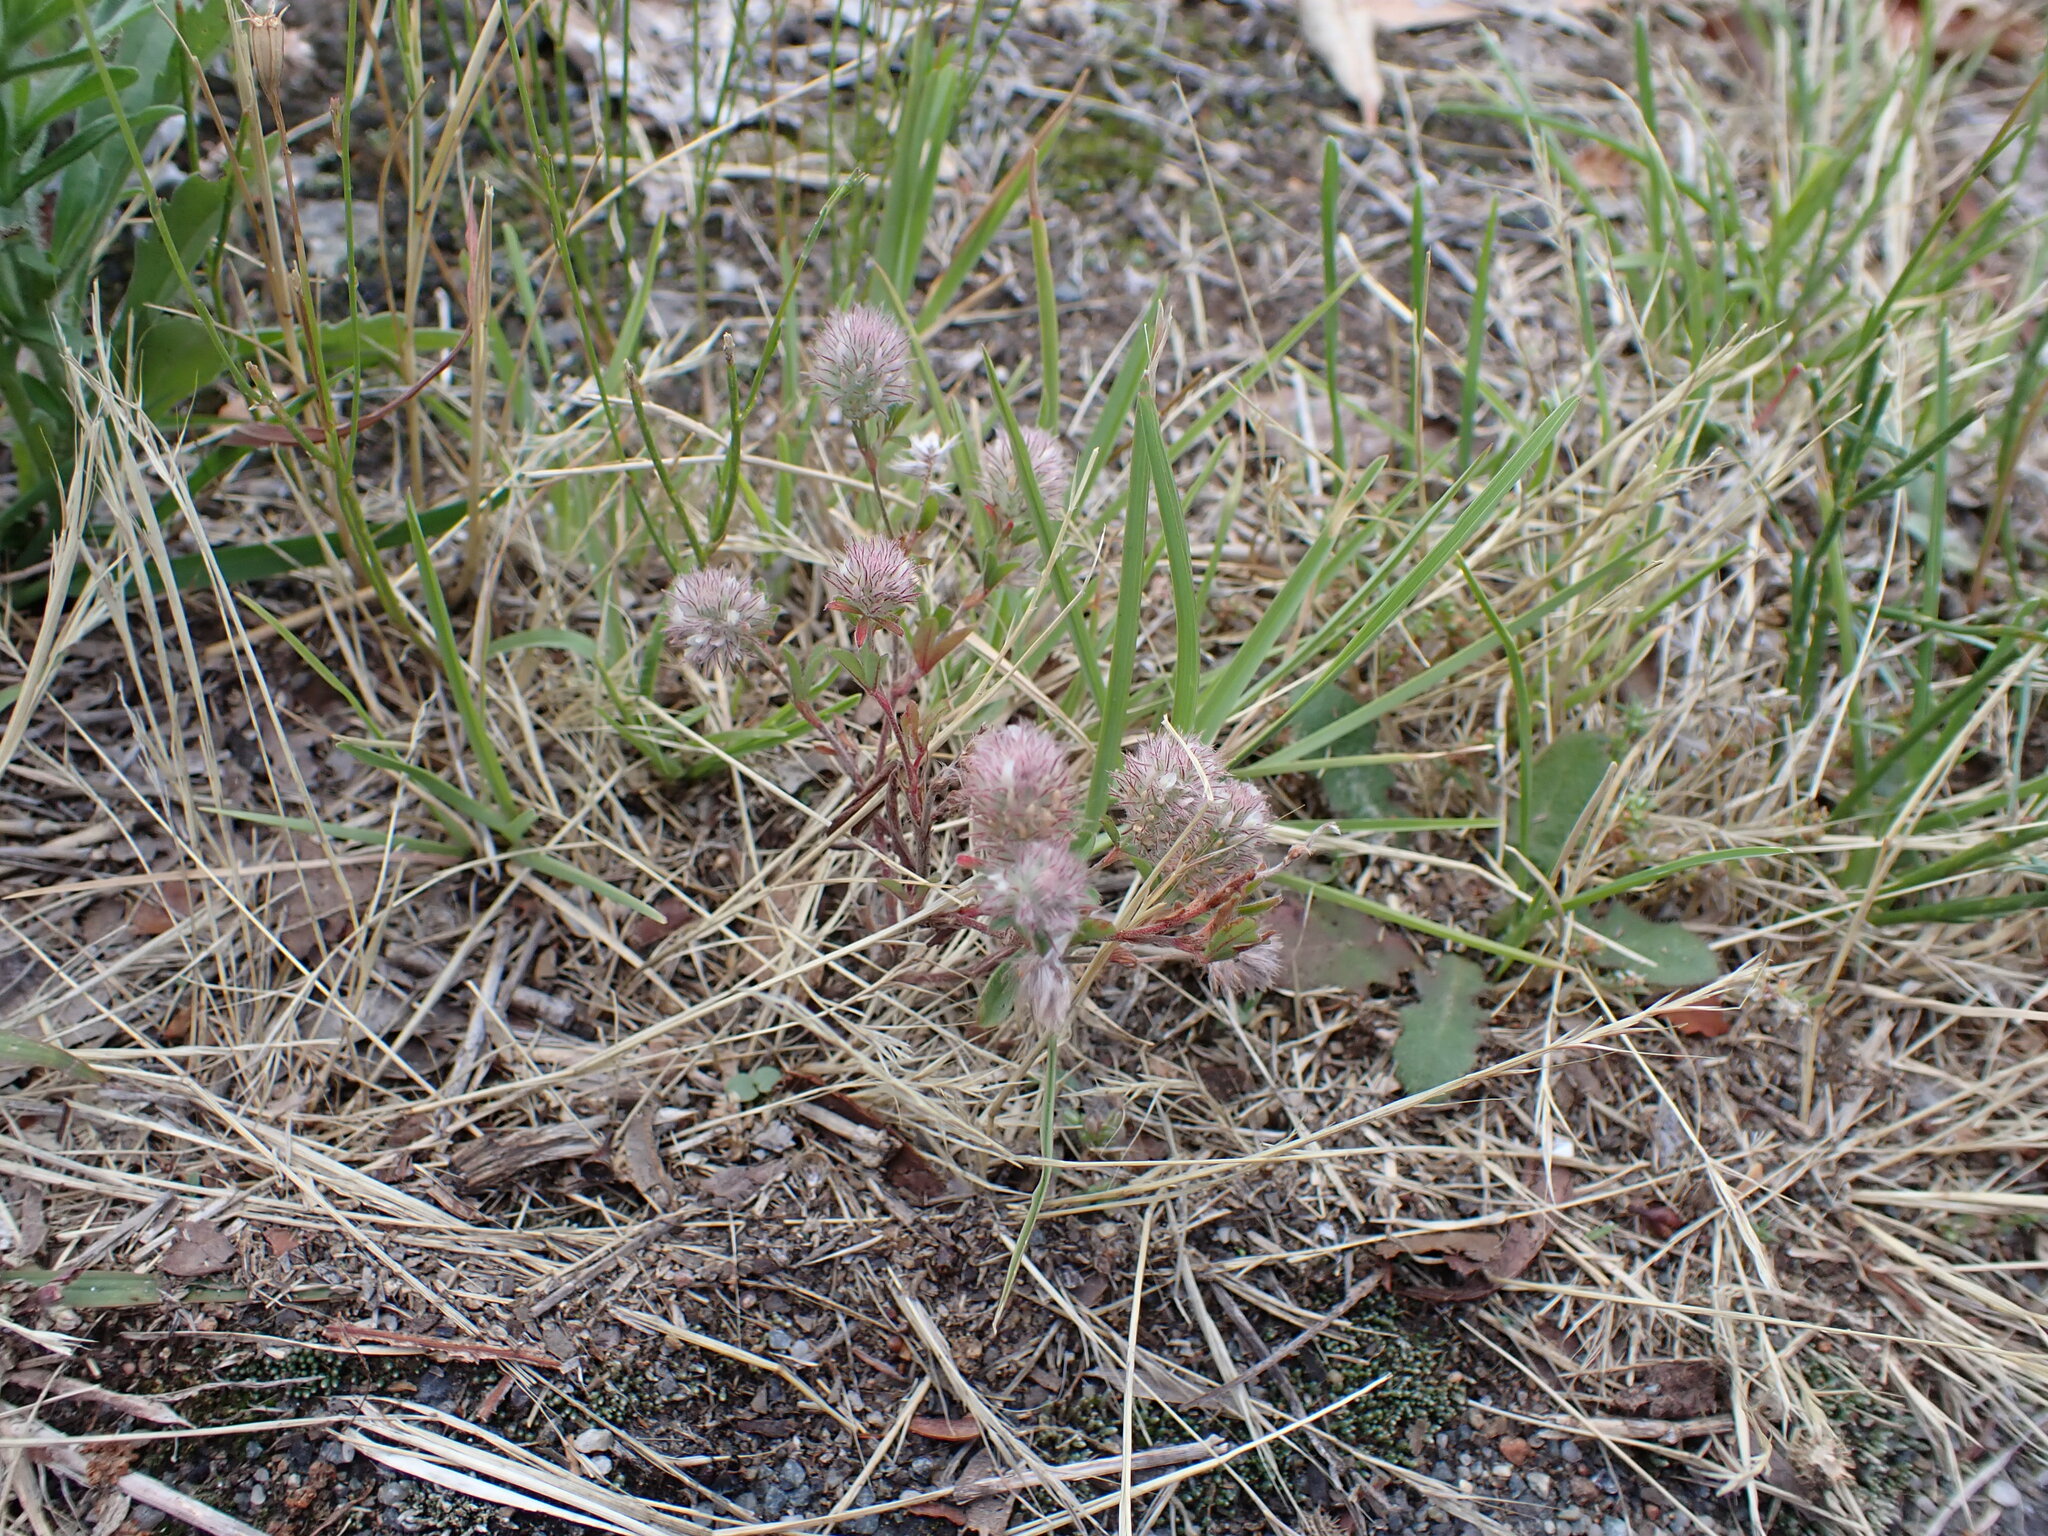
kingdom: Plantae
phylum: Tracheophyta
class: Magnoliopsida
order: Fabales
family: Fabaceae
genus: Trifolium
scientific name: Trifolium arvense
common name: Hare's-foot clover
